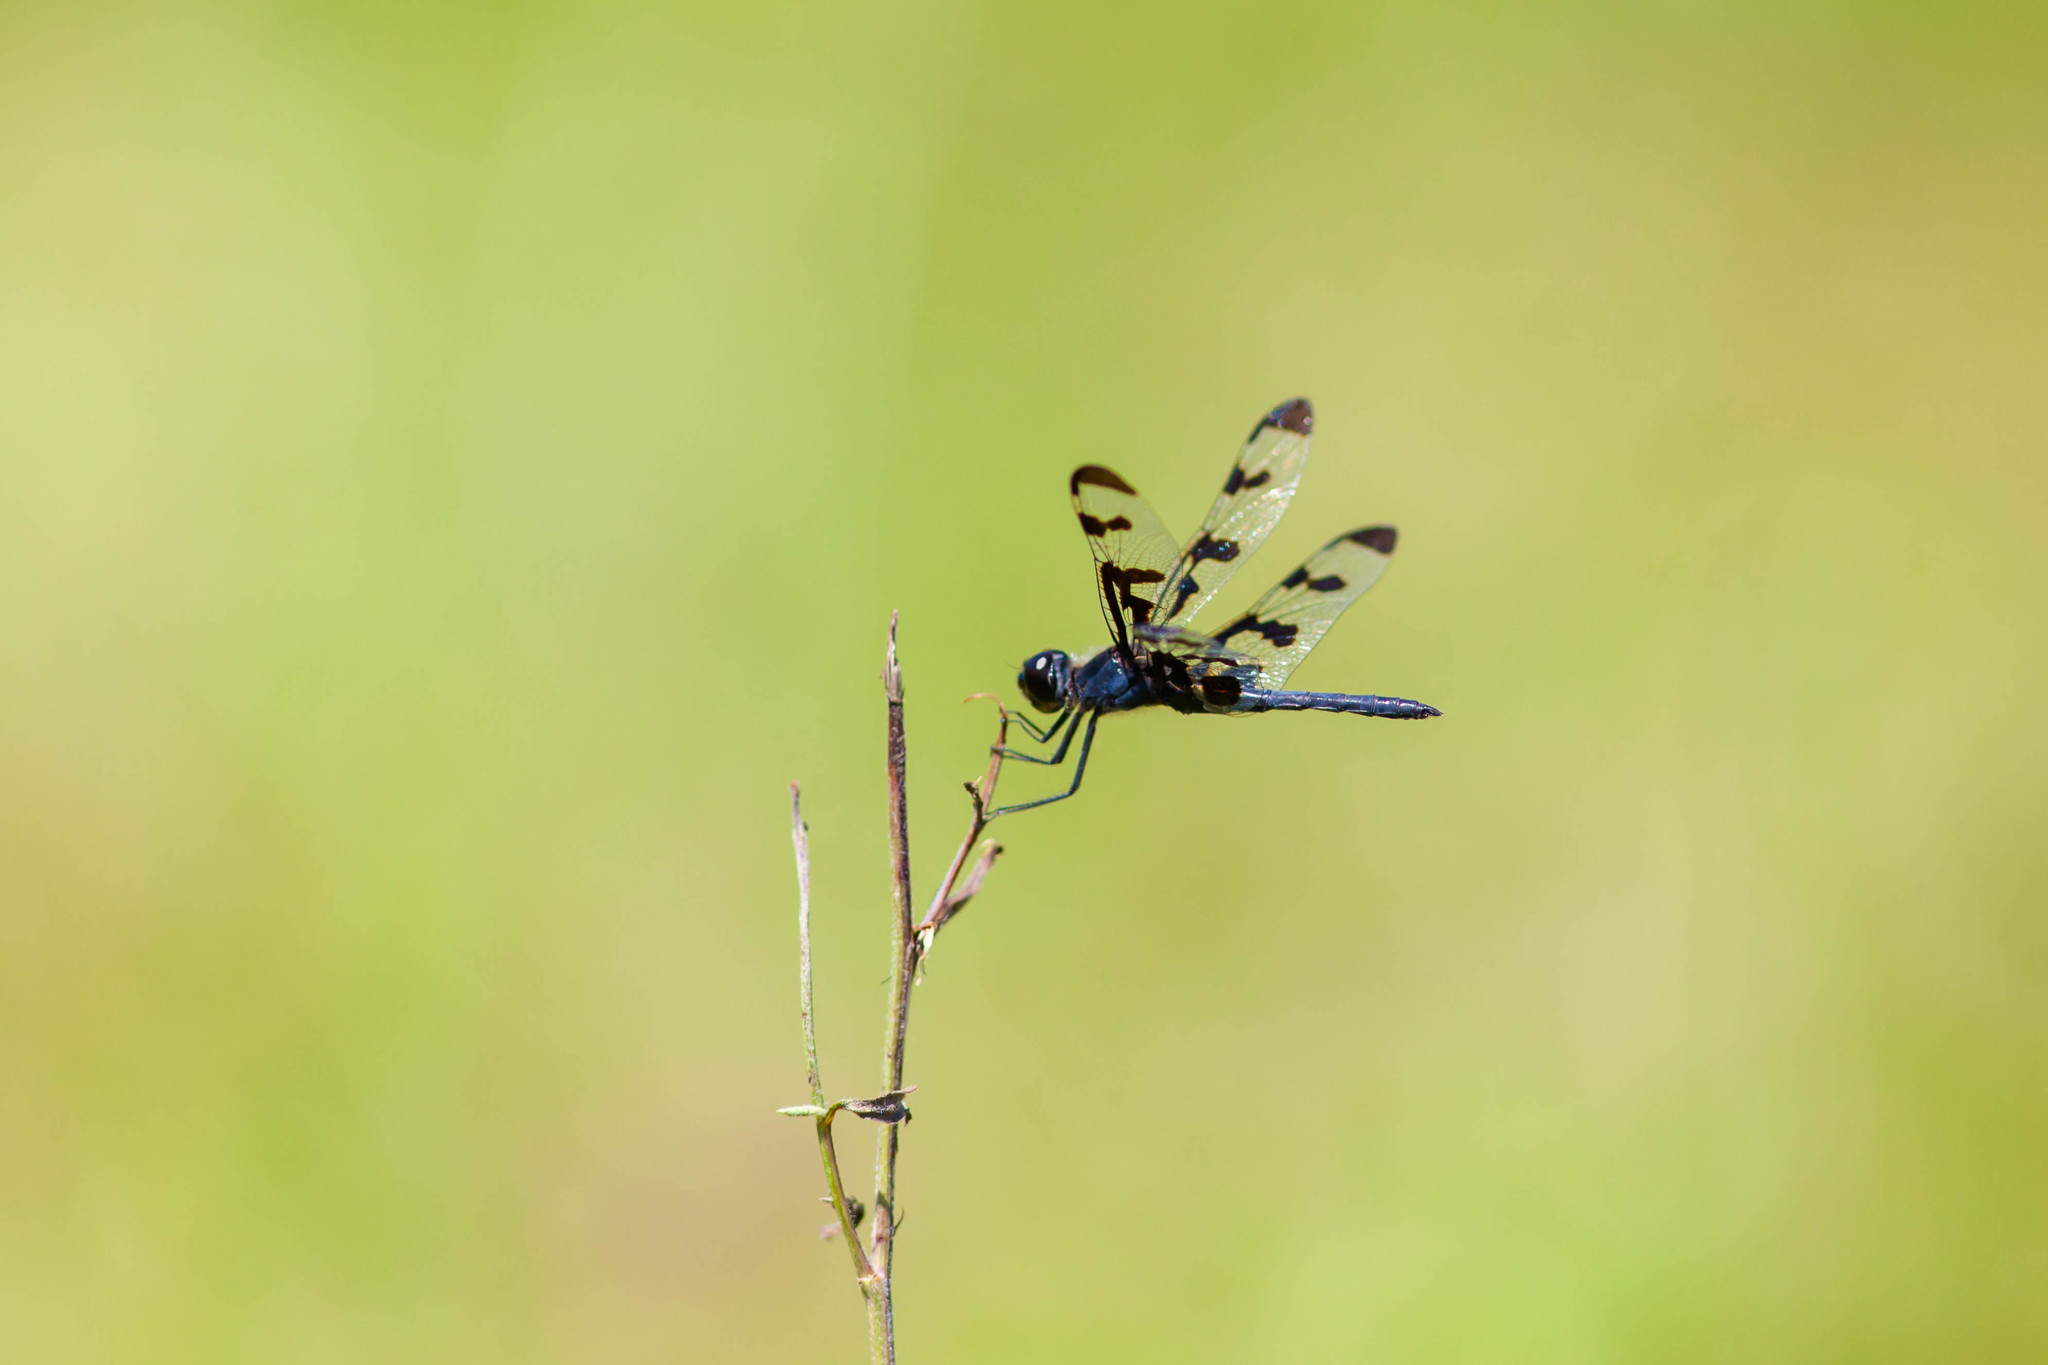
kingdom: Animalia
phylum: Arthropoda
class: Insecta
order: Odonata
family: Libellulidae
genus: Celithemis
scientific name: Celithemis fasciata
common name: Banded pennant
